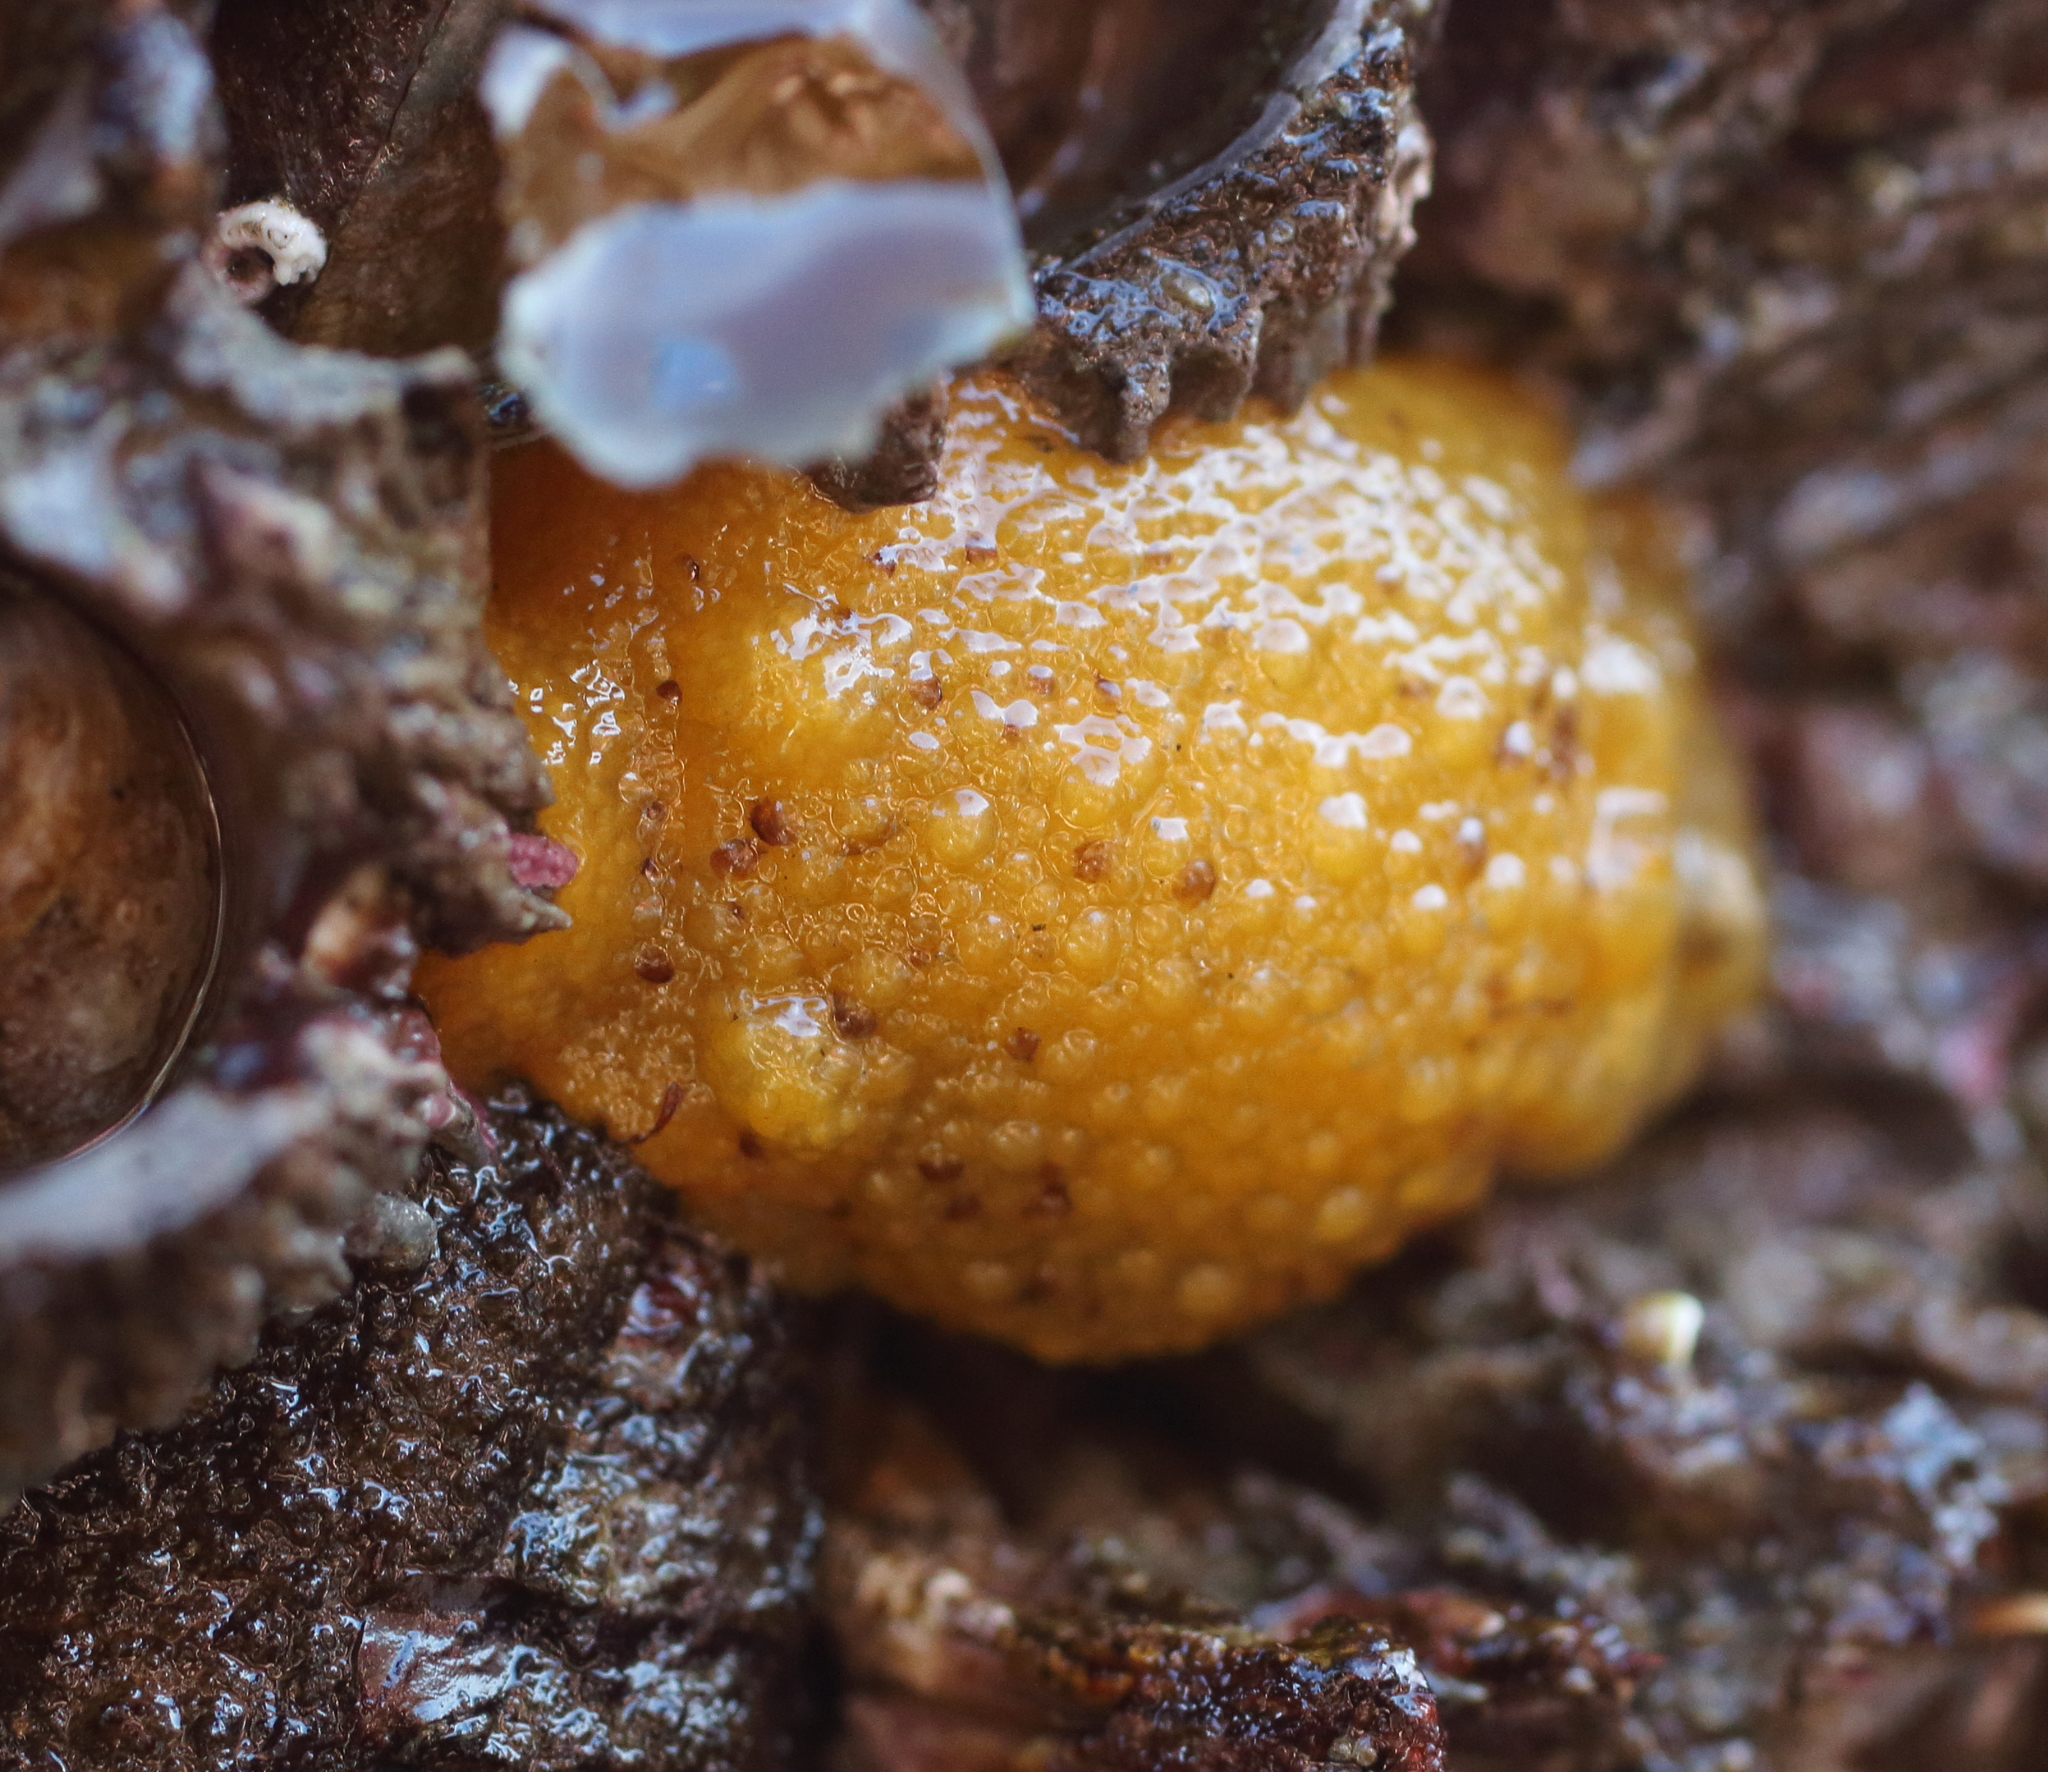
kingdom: Animalia
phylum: Mollusca
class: Gastropoda
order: Nudibranchia
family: Dorididae
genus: Doris
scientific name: Doris montereyensis
